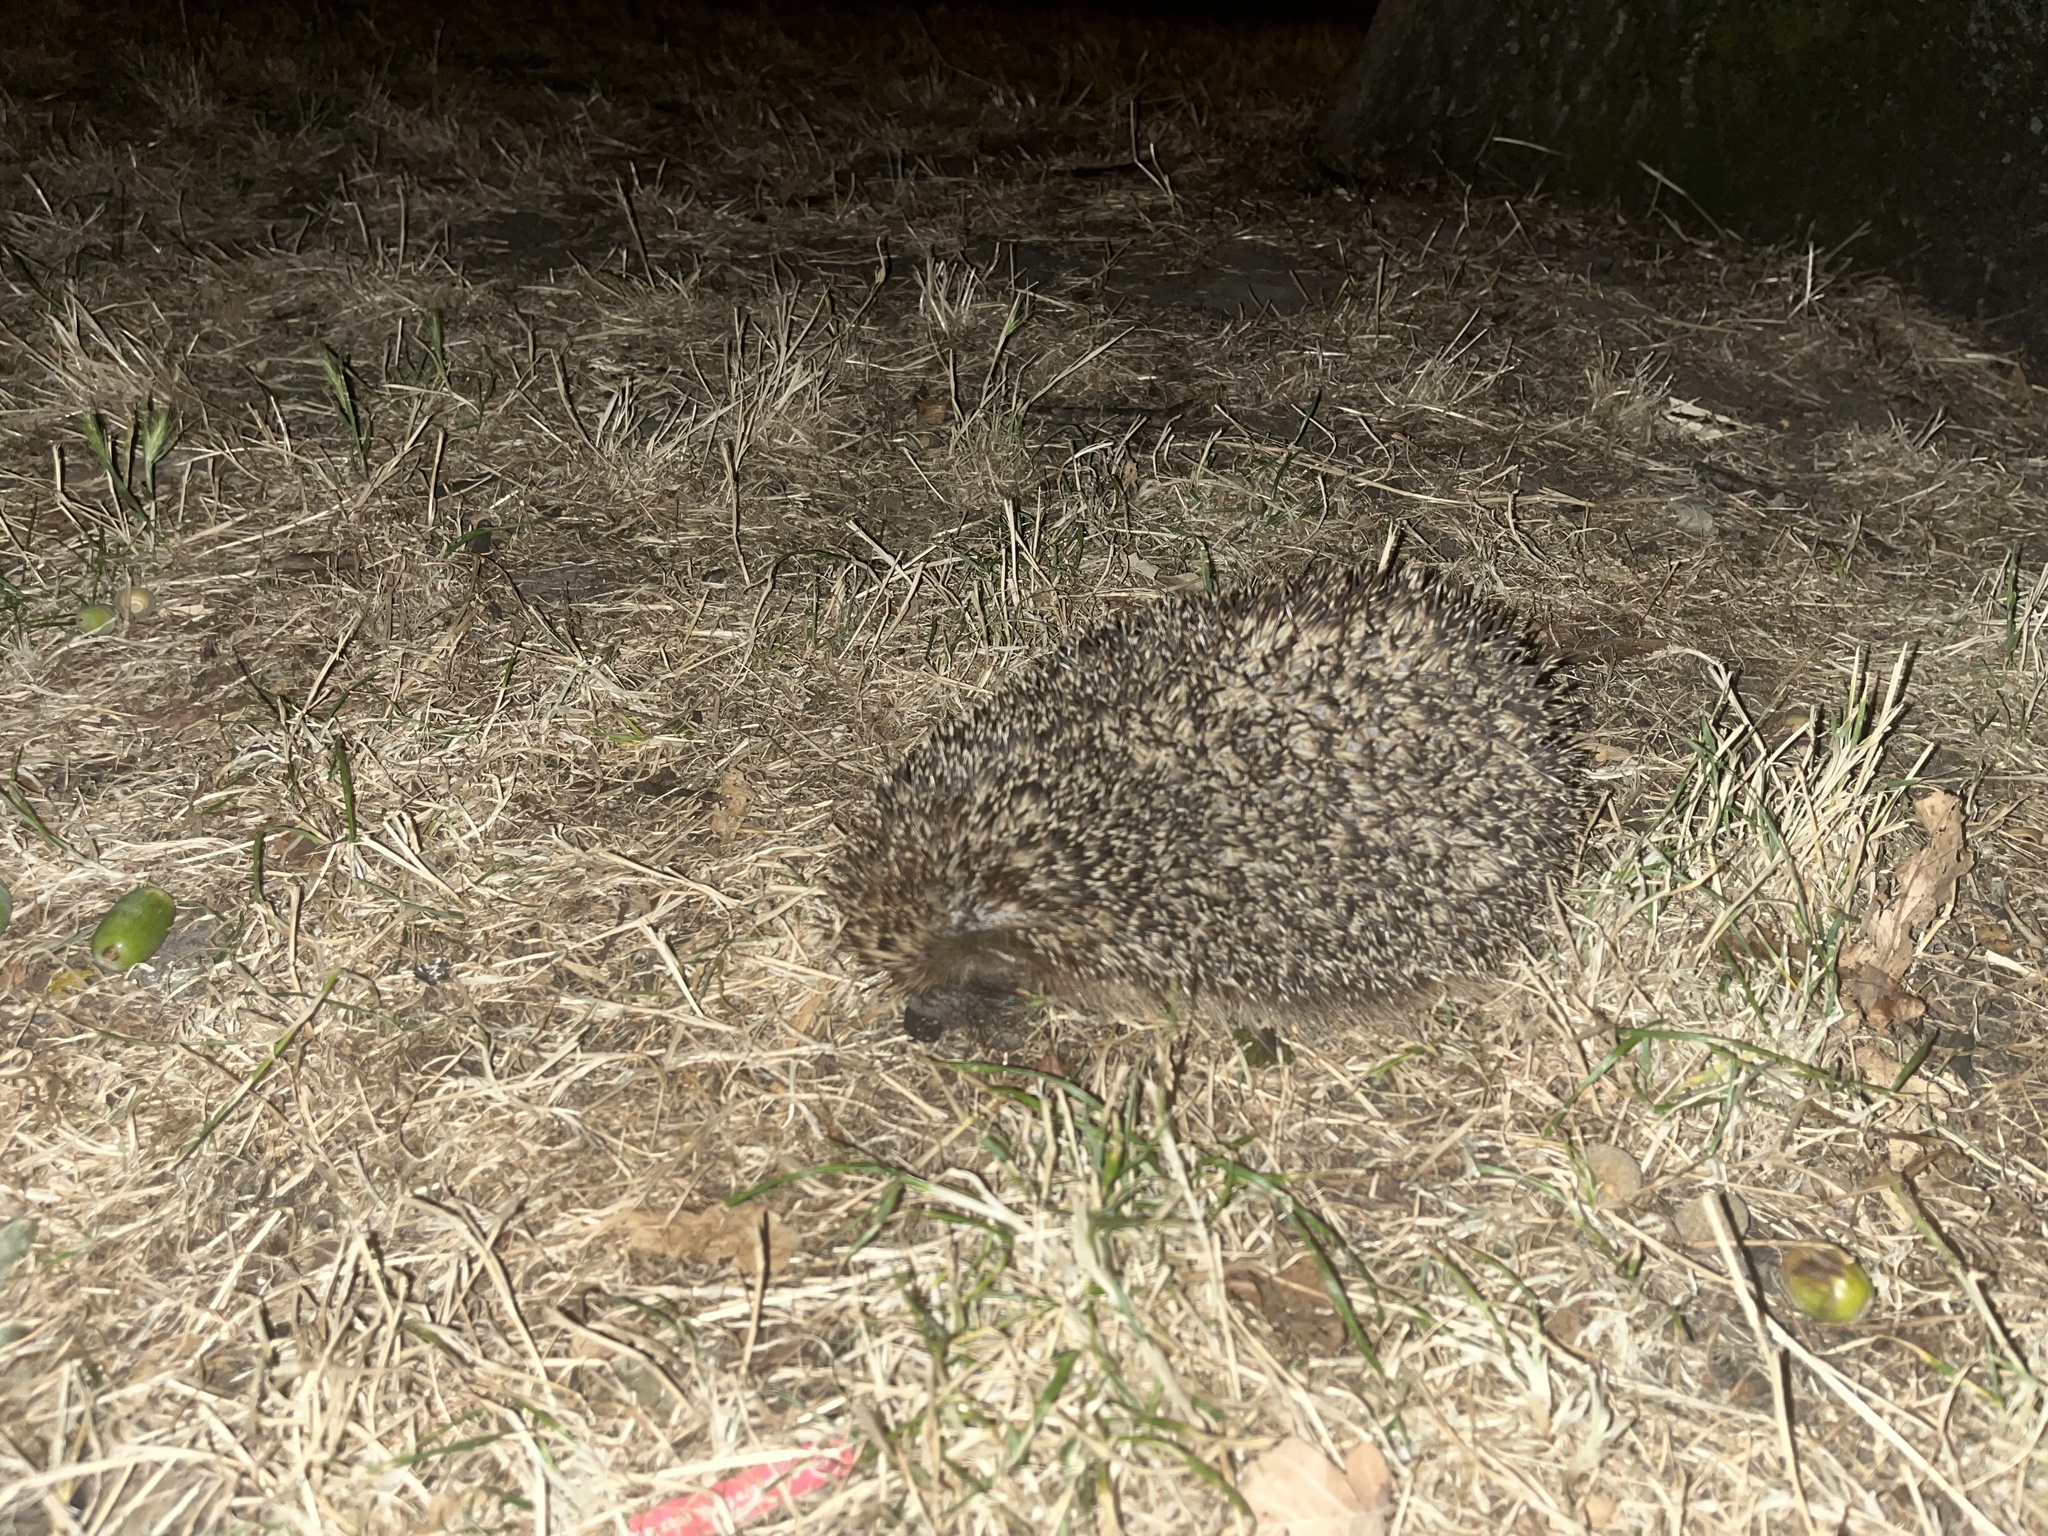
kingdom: Animalia
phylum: Chordata
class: Mammalia
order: Erinaceomorpha
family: Erinaceidae
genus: Erinaceus
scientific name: Erinaceus europaeus
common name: West european hedgehog
